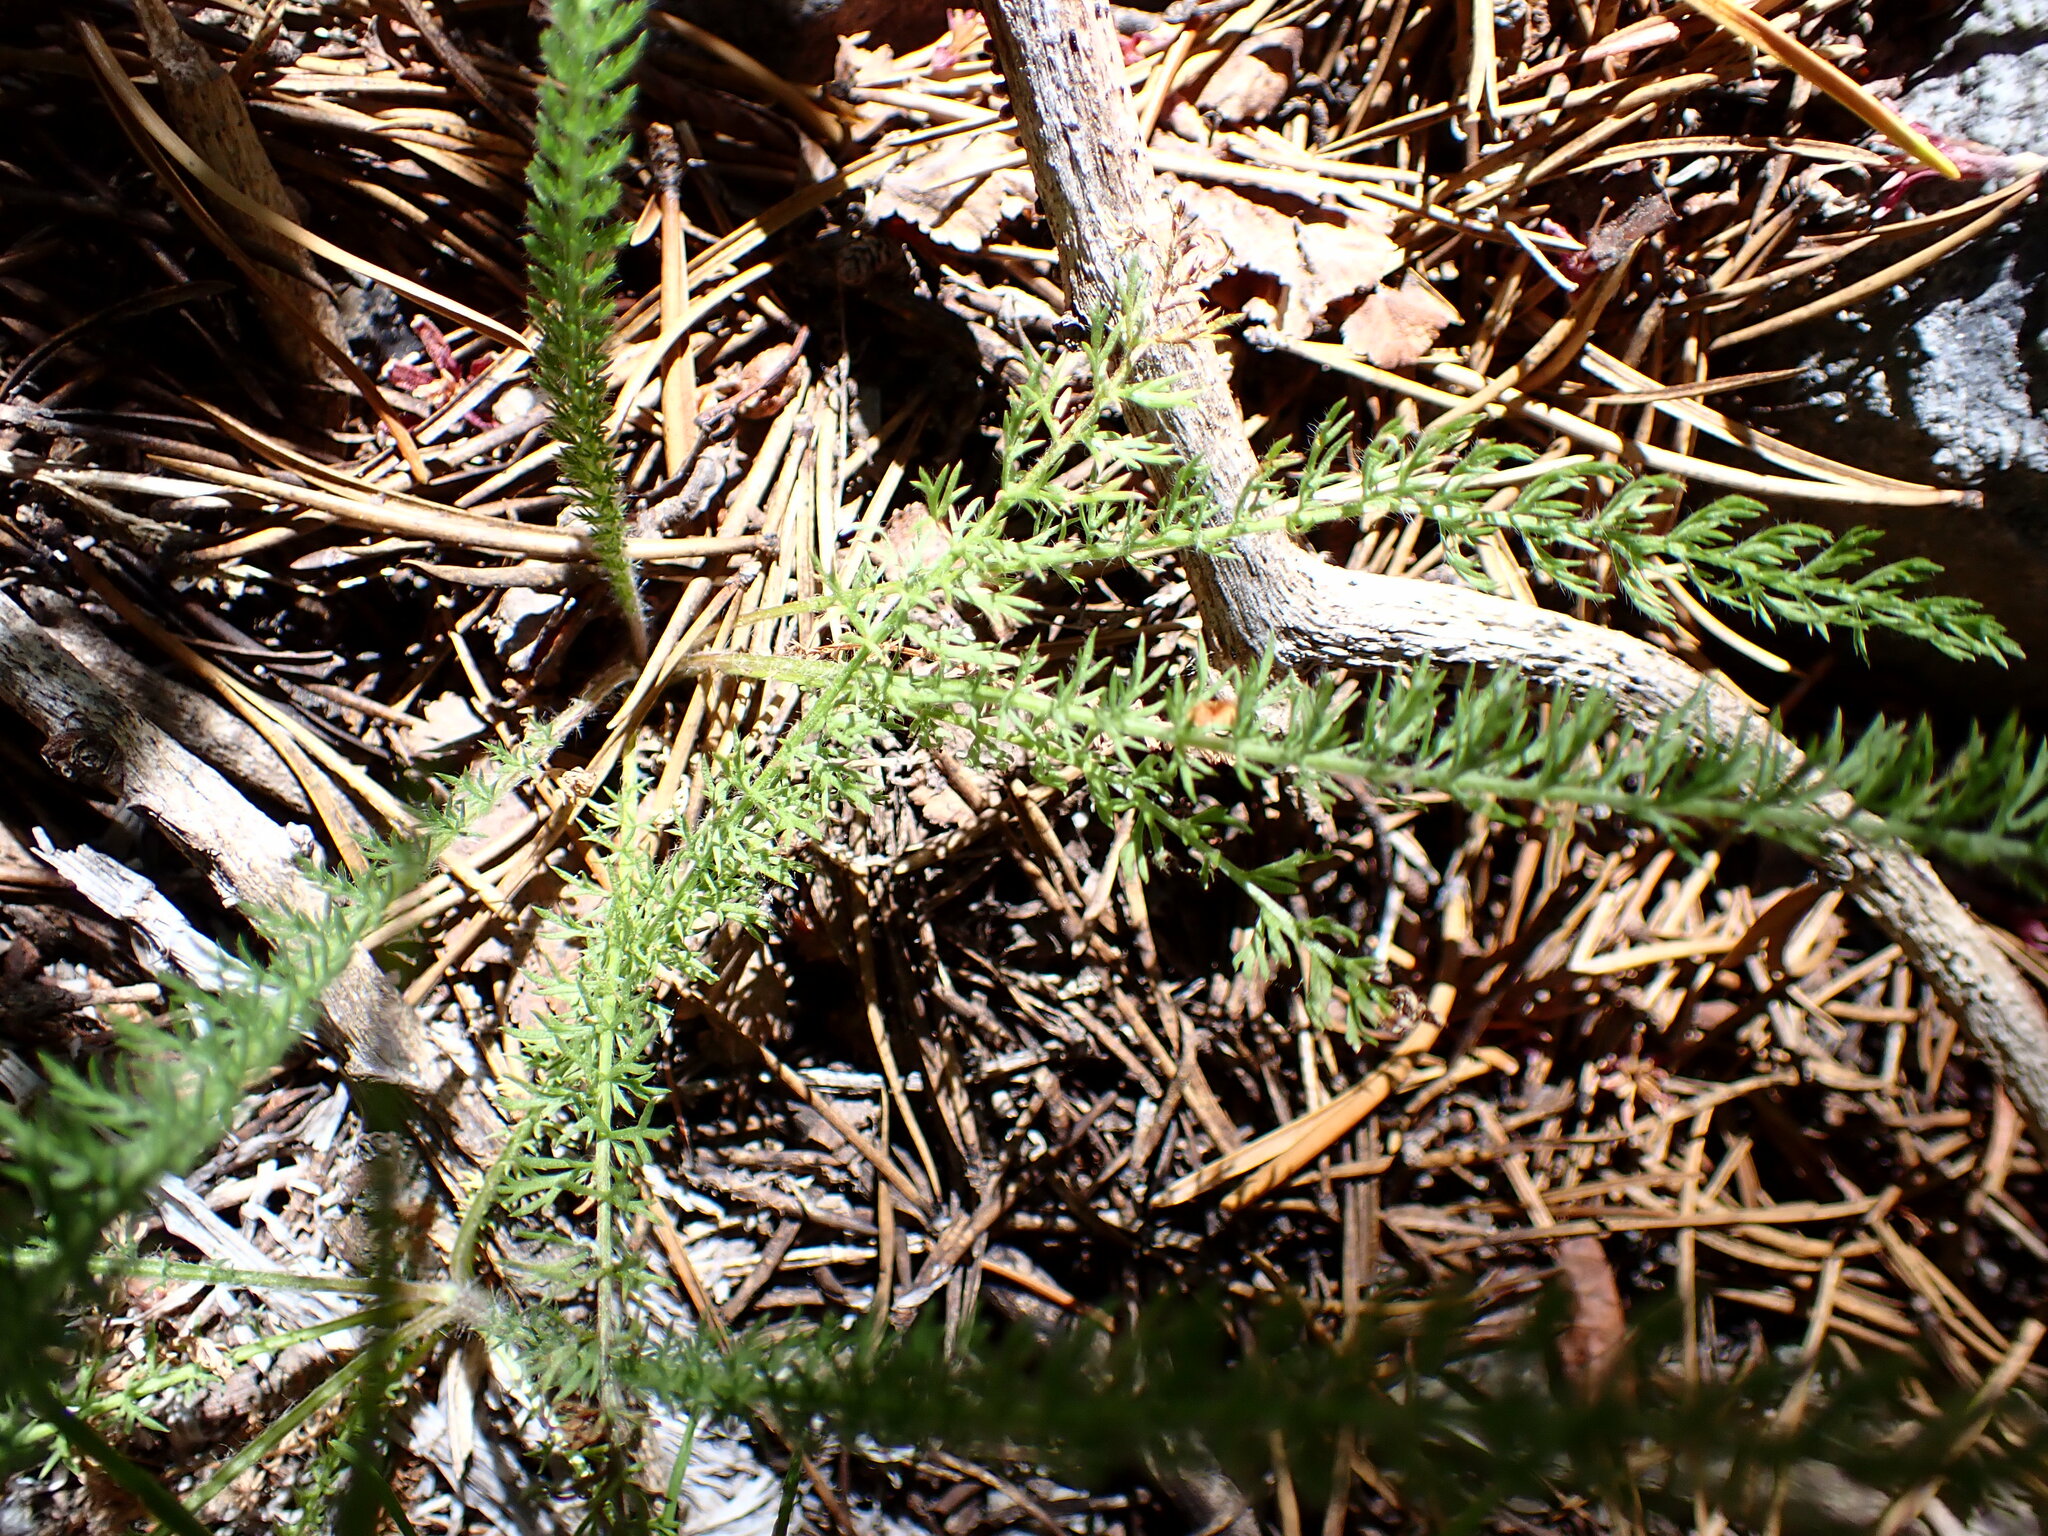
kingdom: Plantae
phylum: Tracheophyta
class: Magnoliopsida
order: Asterales
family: Asteraceae
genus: Achillea
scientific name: Achillea millefolium
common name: Yarrow
